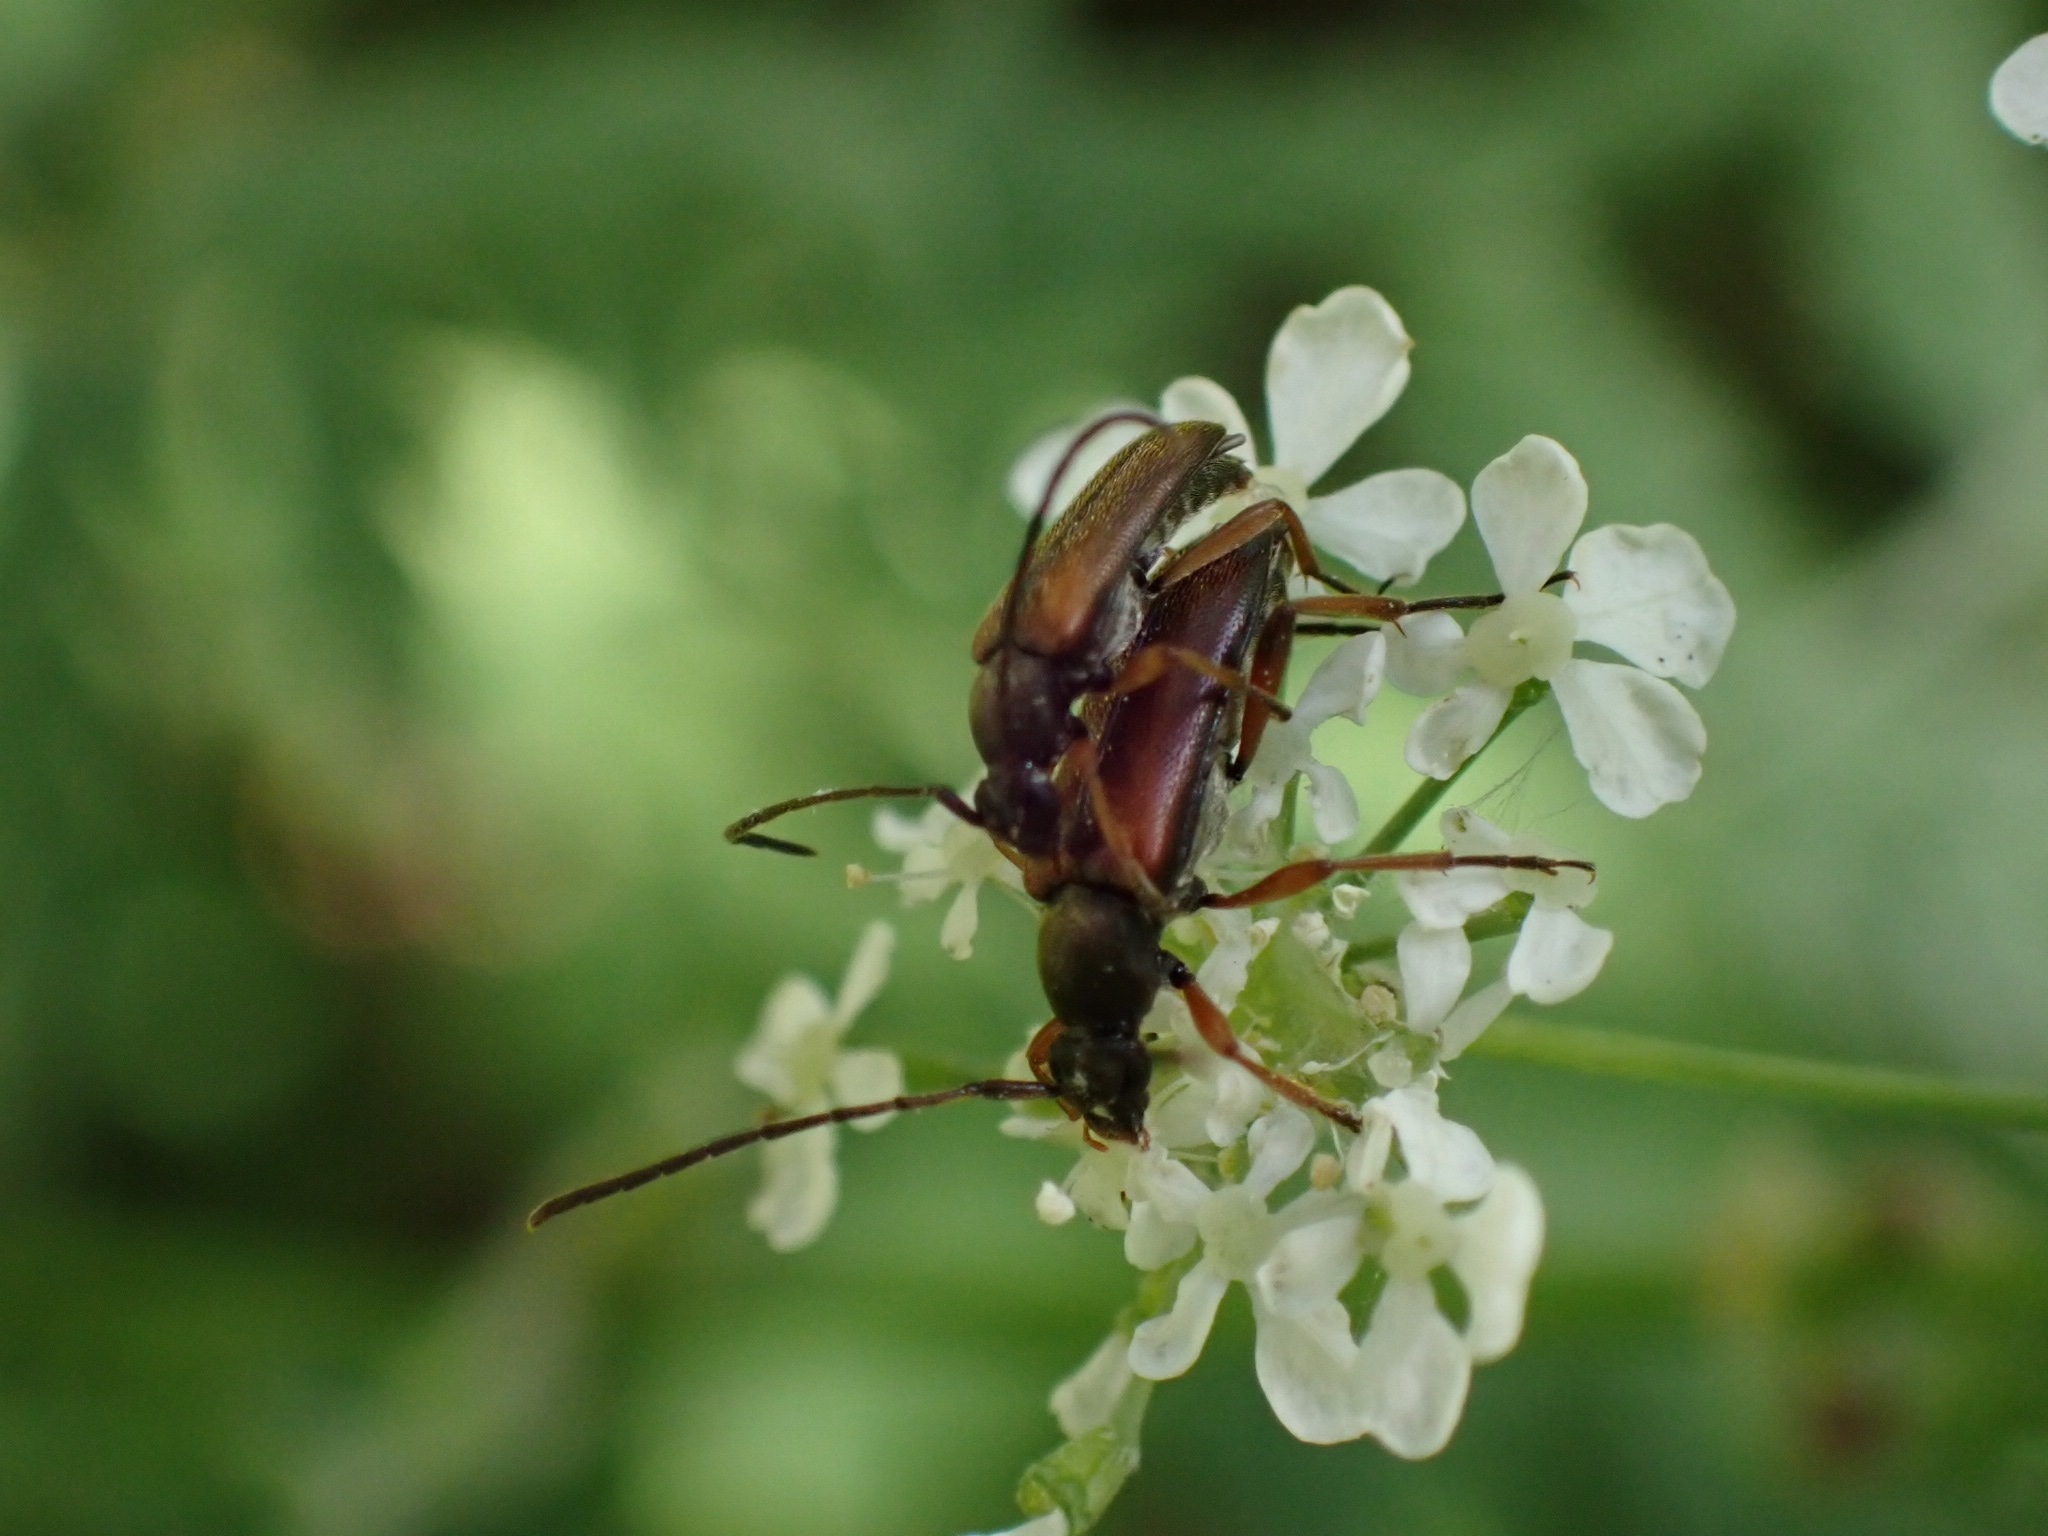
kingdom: Animalia
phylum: Arthropoda
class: Insecta
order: Coleoptera
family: Cerambycidae
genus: Alosterna
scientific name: Alosterna tabacicolor
